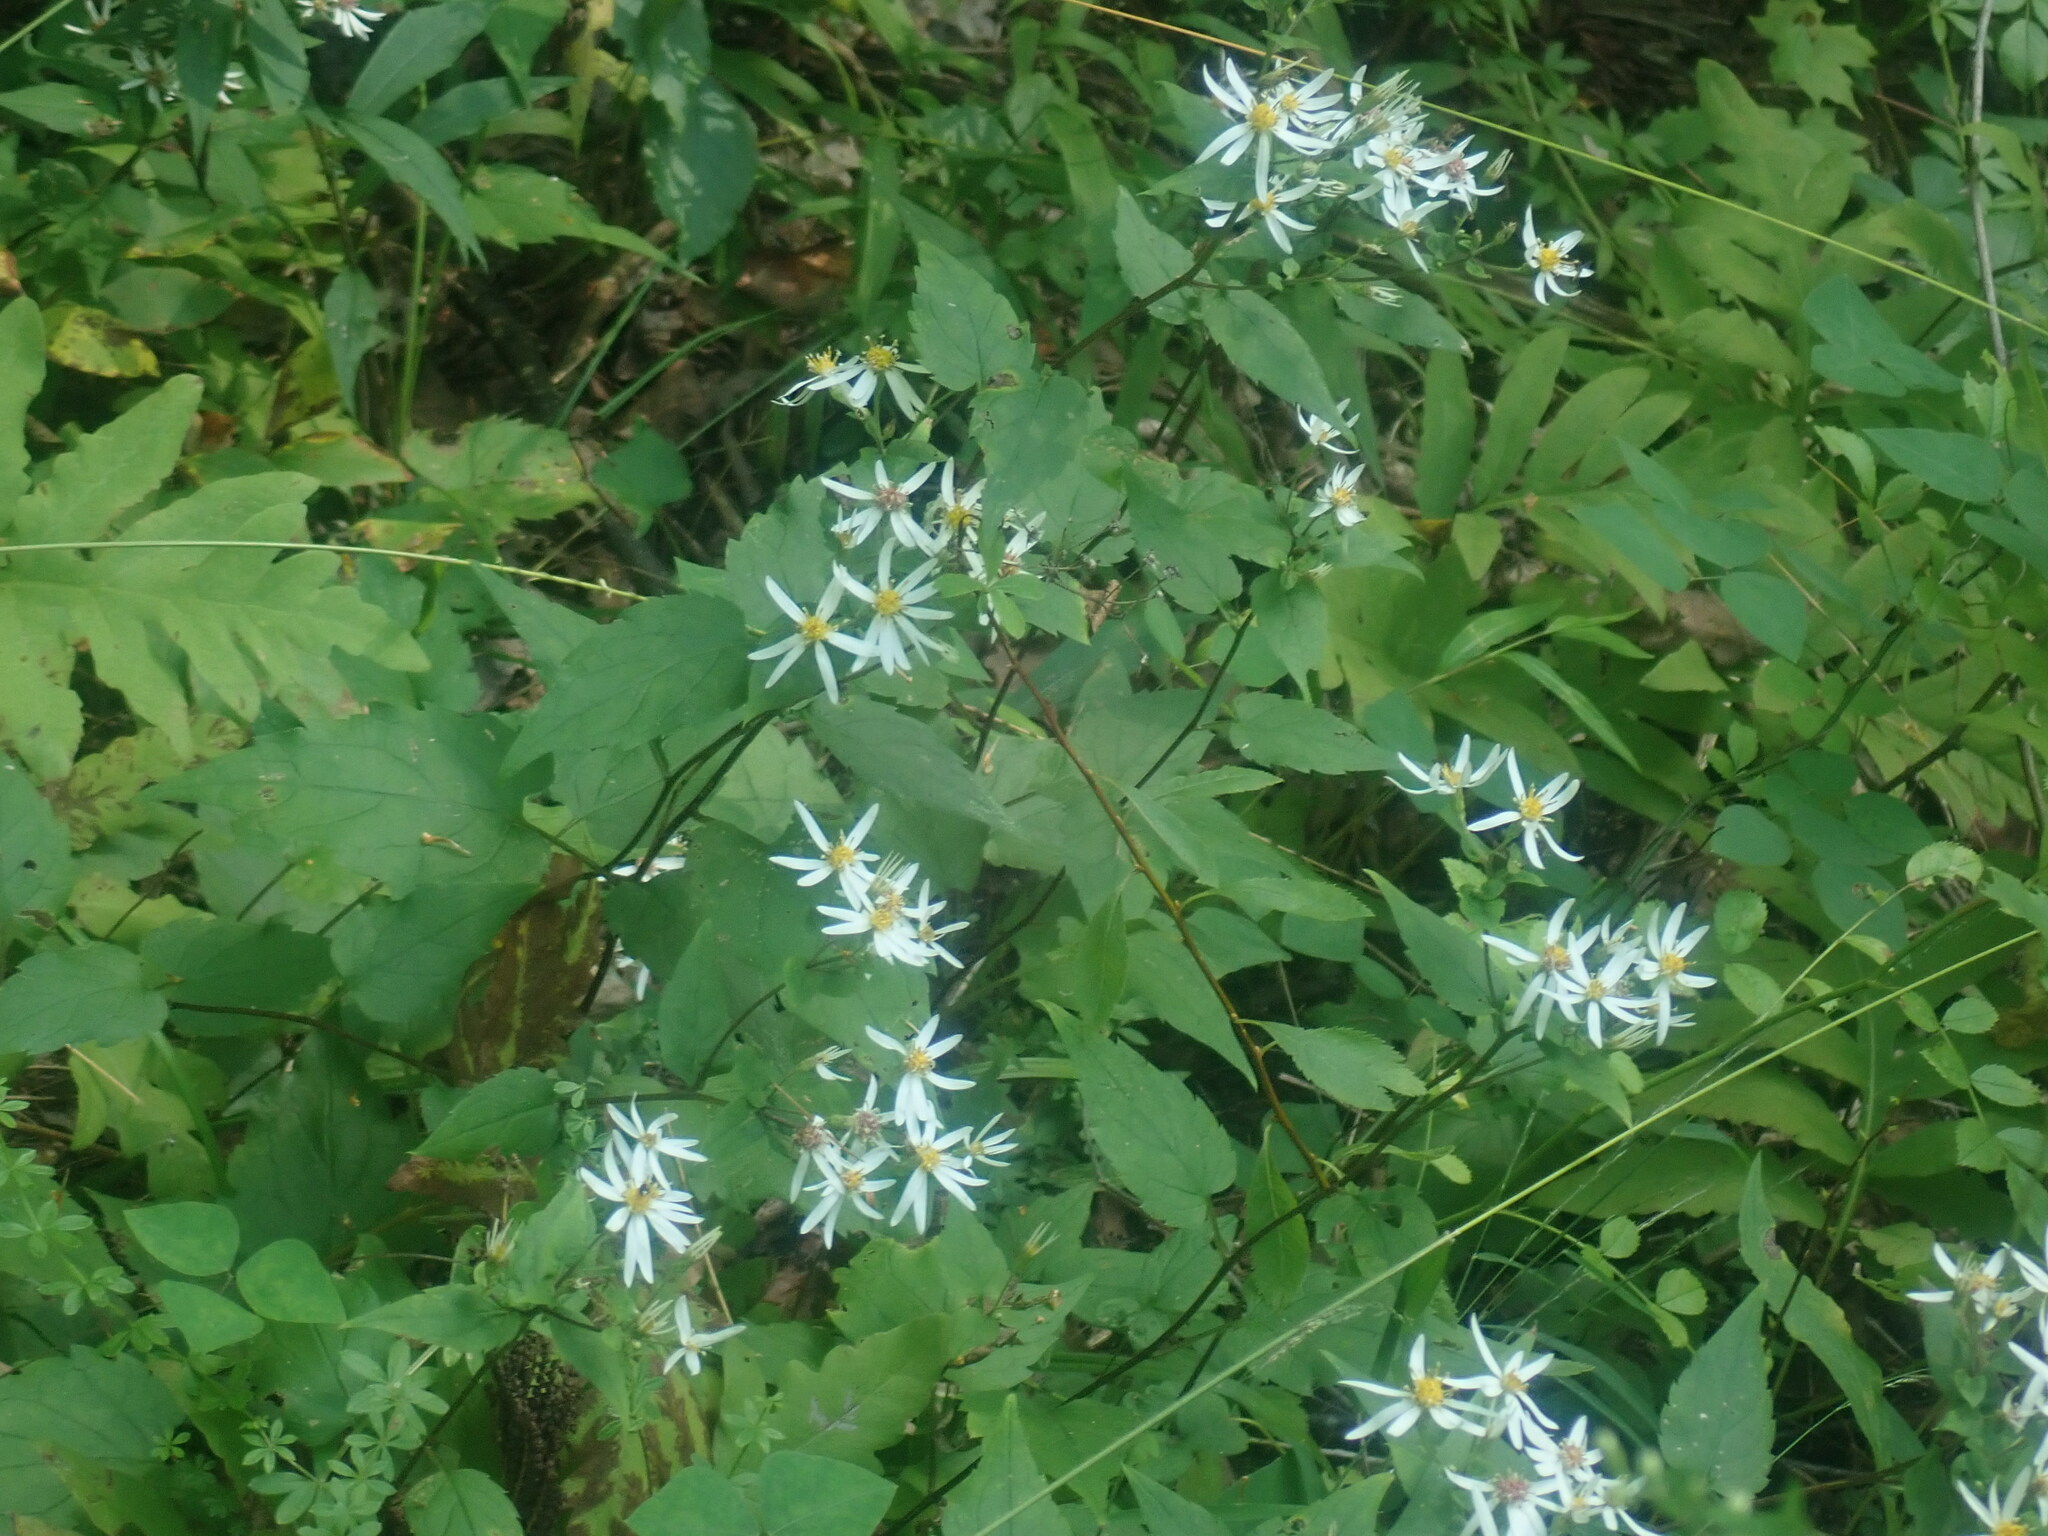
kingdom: Plantae
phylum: Tracheophyta
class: Magnoliopsida
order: Asterales
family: Asteraceae
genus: Eurybia
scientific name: Eurybia divaricata
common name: White wood aster
